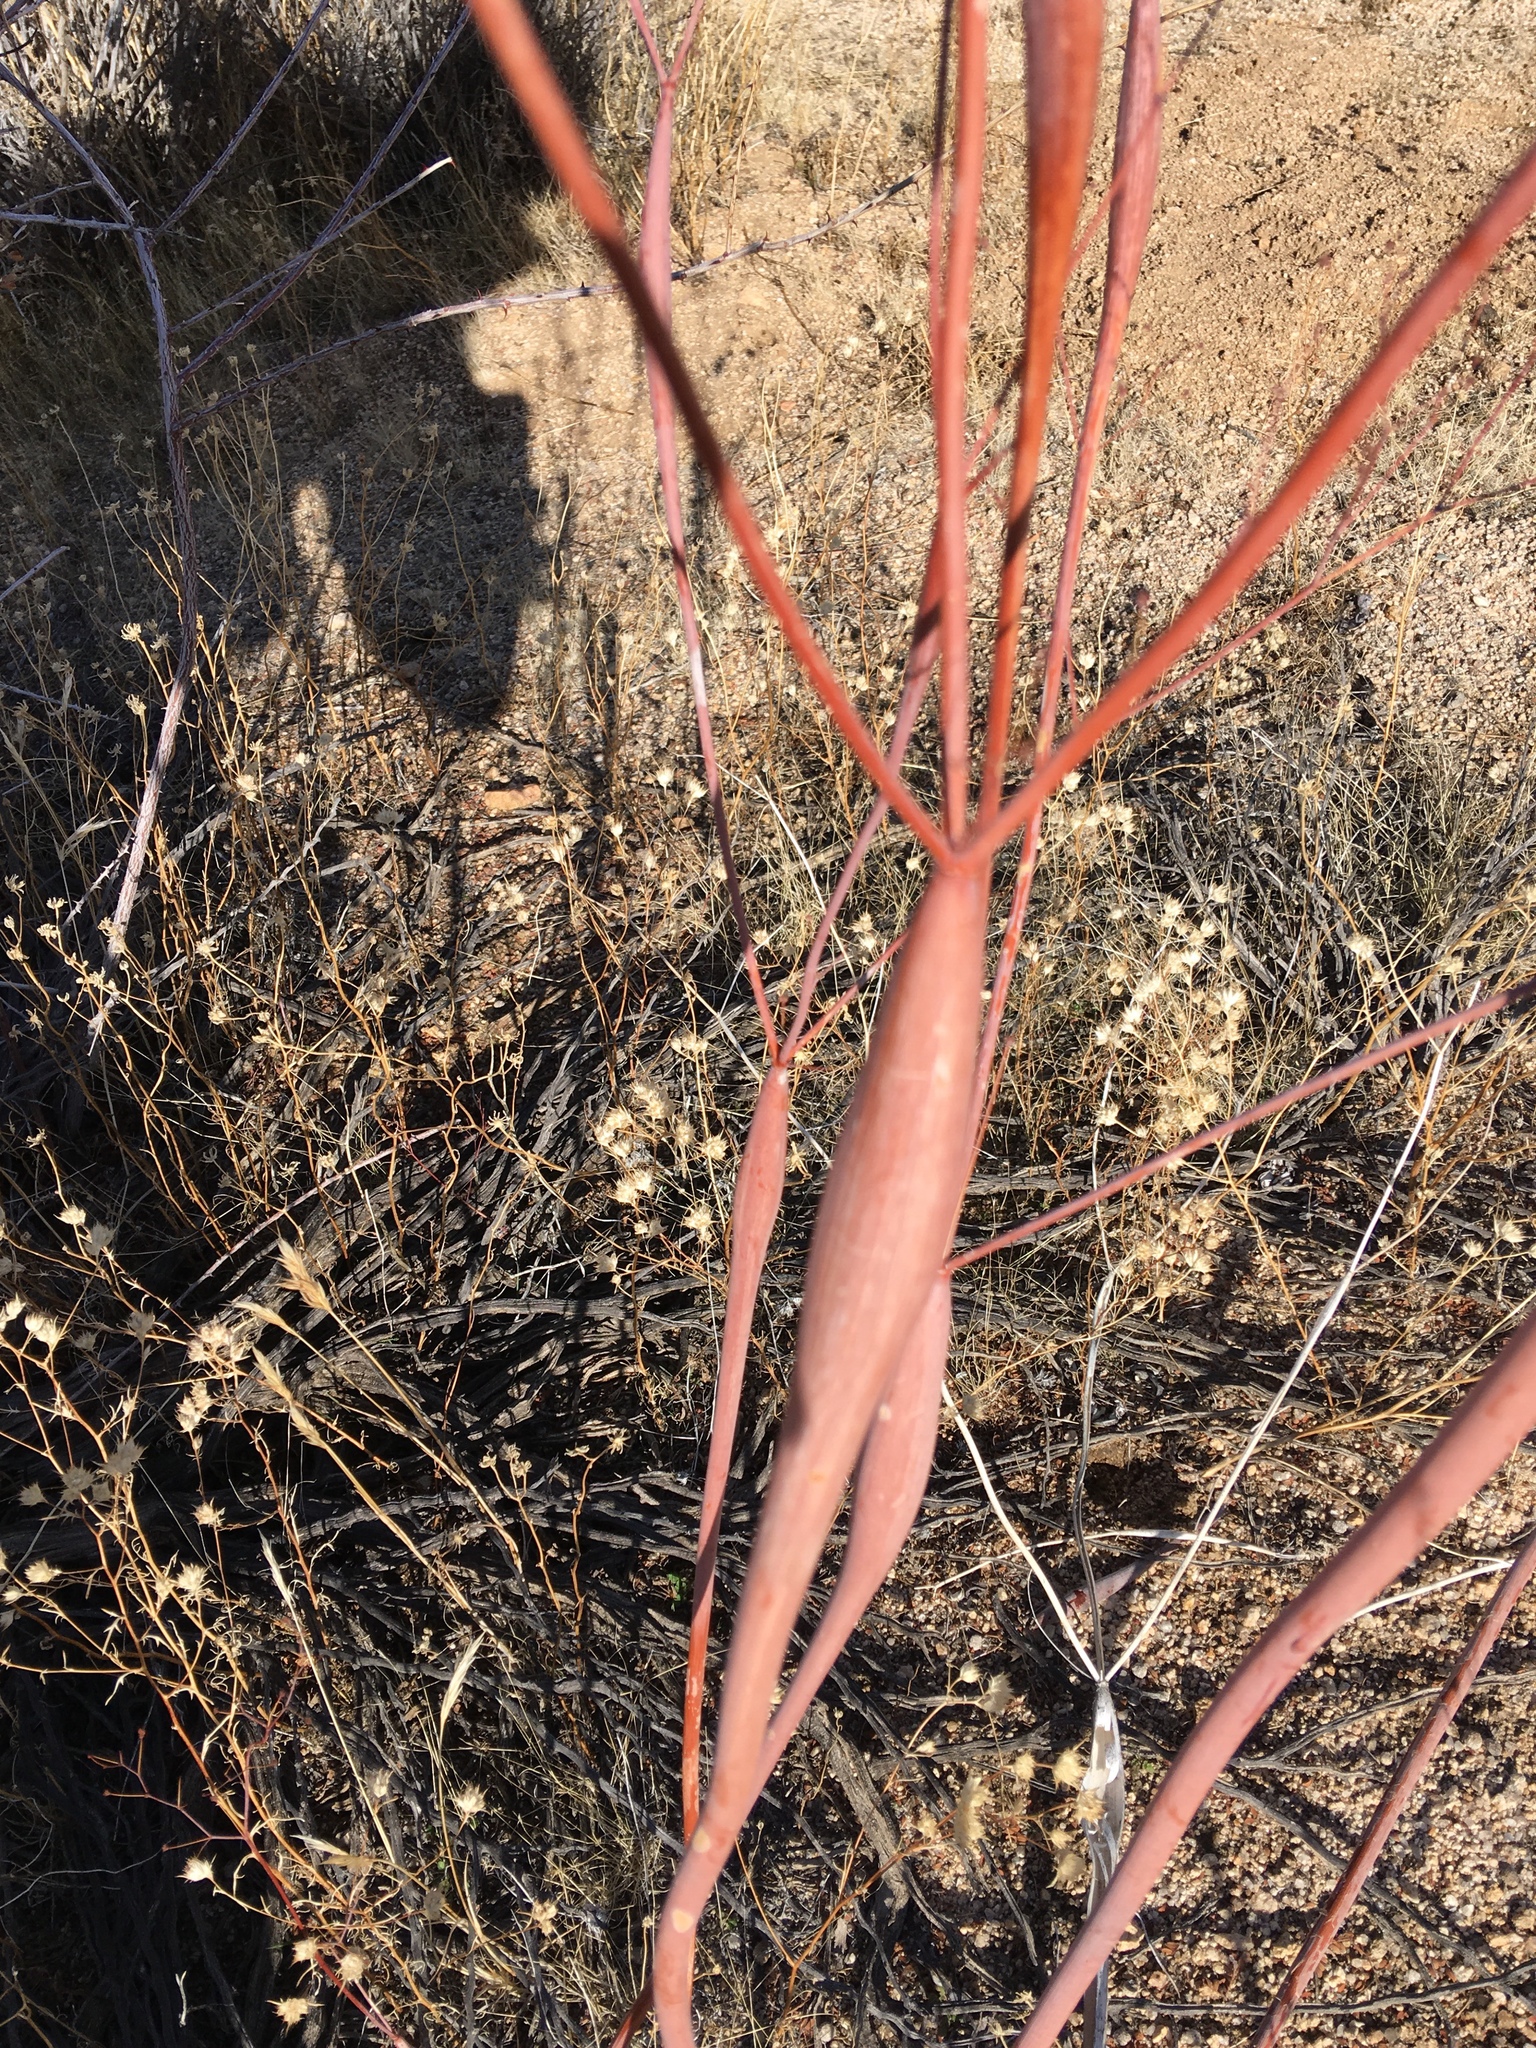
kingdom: Plantae
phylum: Tracheophyta
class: Magnoliopsida
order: Caryophyllales
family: Polygonaceae
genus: Eriogonum
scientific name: Eriogonum inflatum
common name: Desert trumpet
